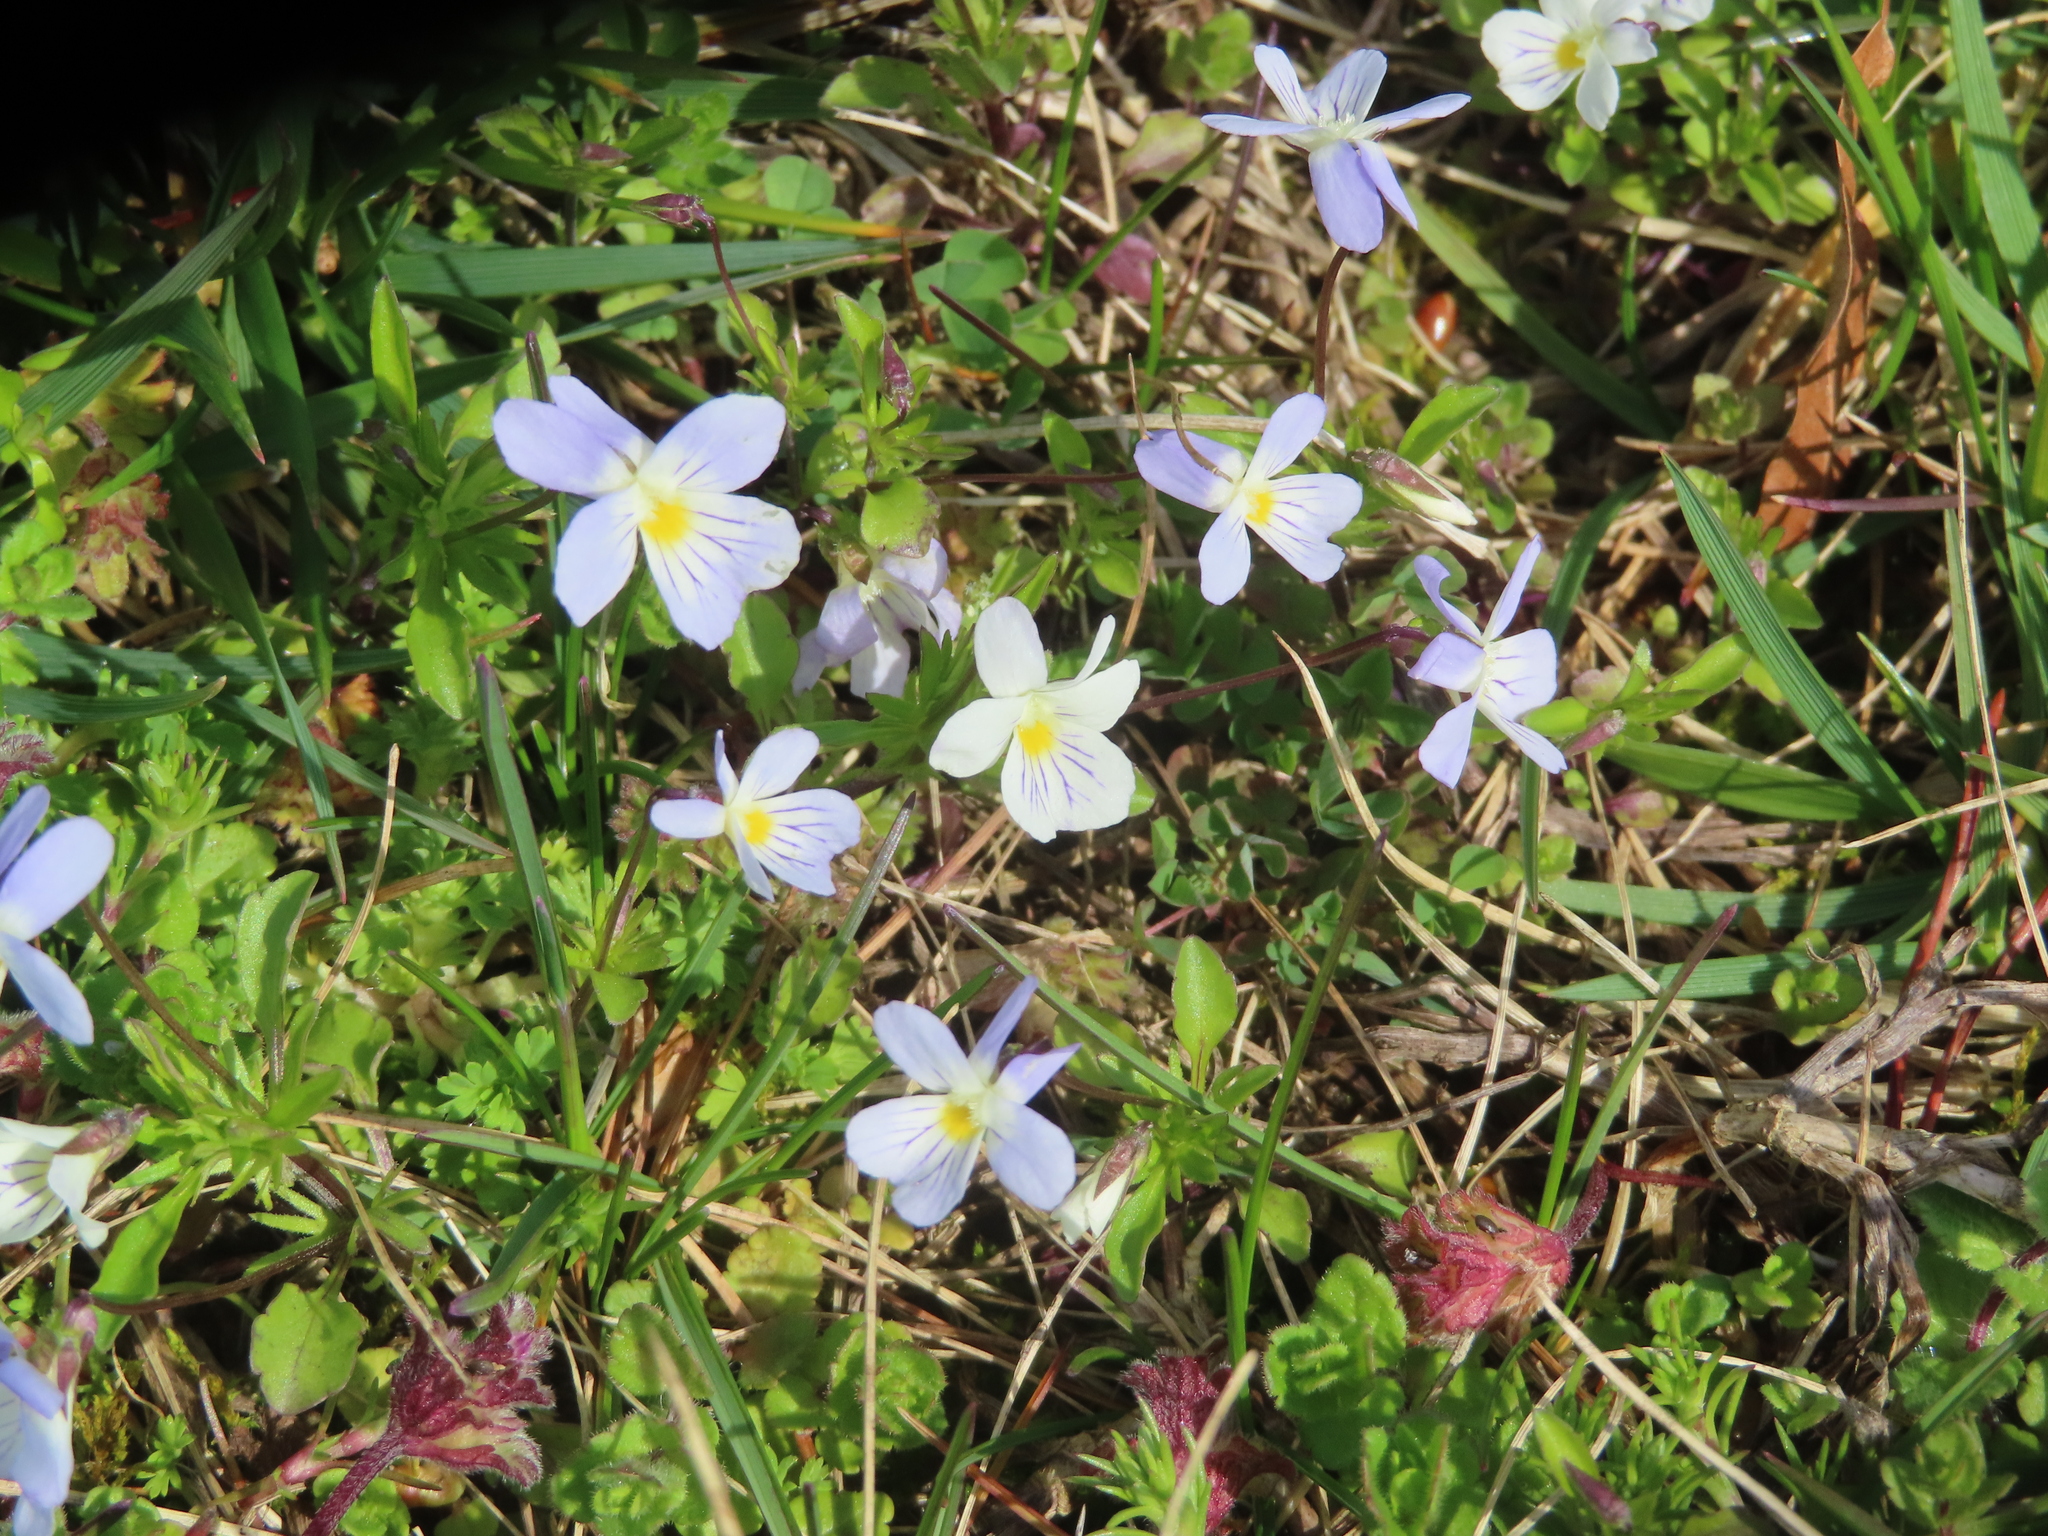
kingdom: Plantae
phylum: Tracheophyta
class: Magnoliopsida
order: Malpighiales
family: Violaceae
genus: Viola
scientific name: Viola rafinesquei
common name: American field pansy
